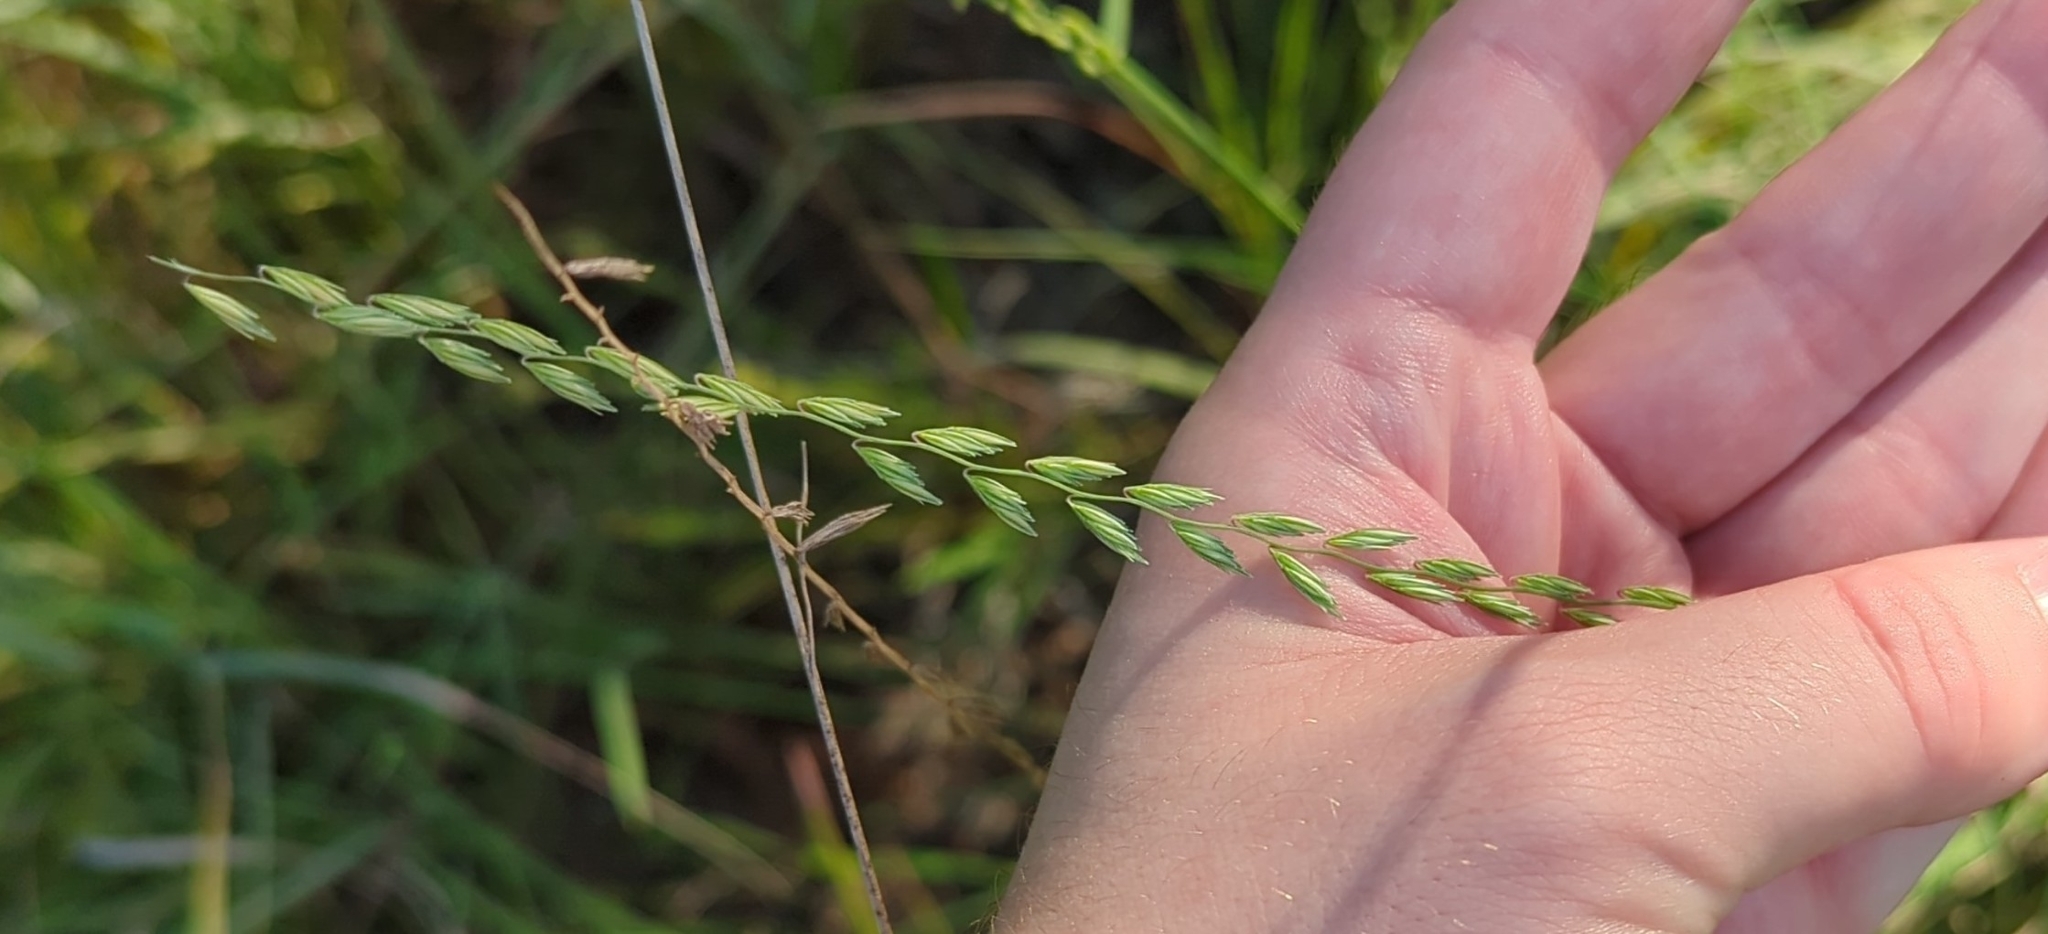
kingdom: Plantae
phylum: Tracheophyta
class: Liliopsida
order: Poales
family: Poaceae
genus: Bouteloua
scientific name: Bouteloua curtipendula
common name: Side-oats grama
